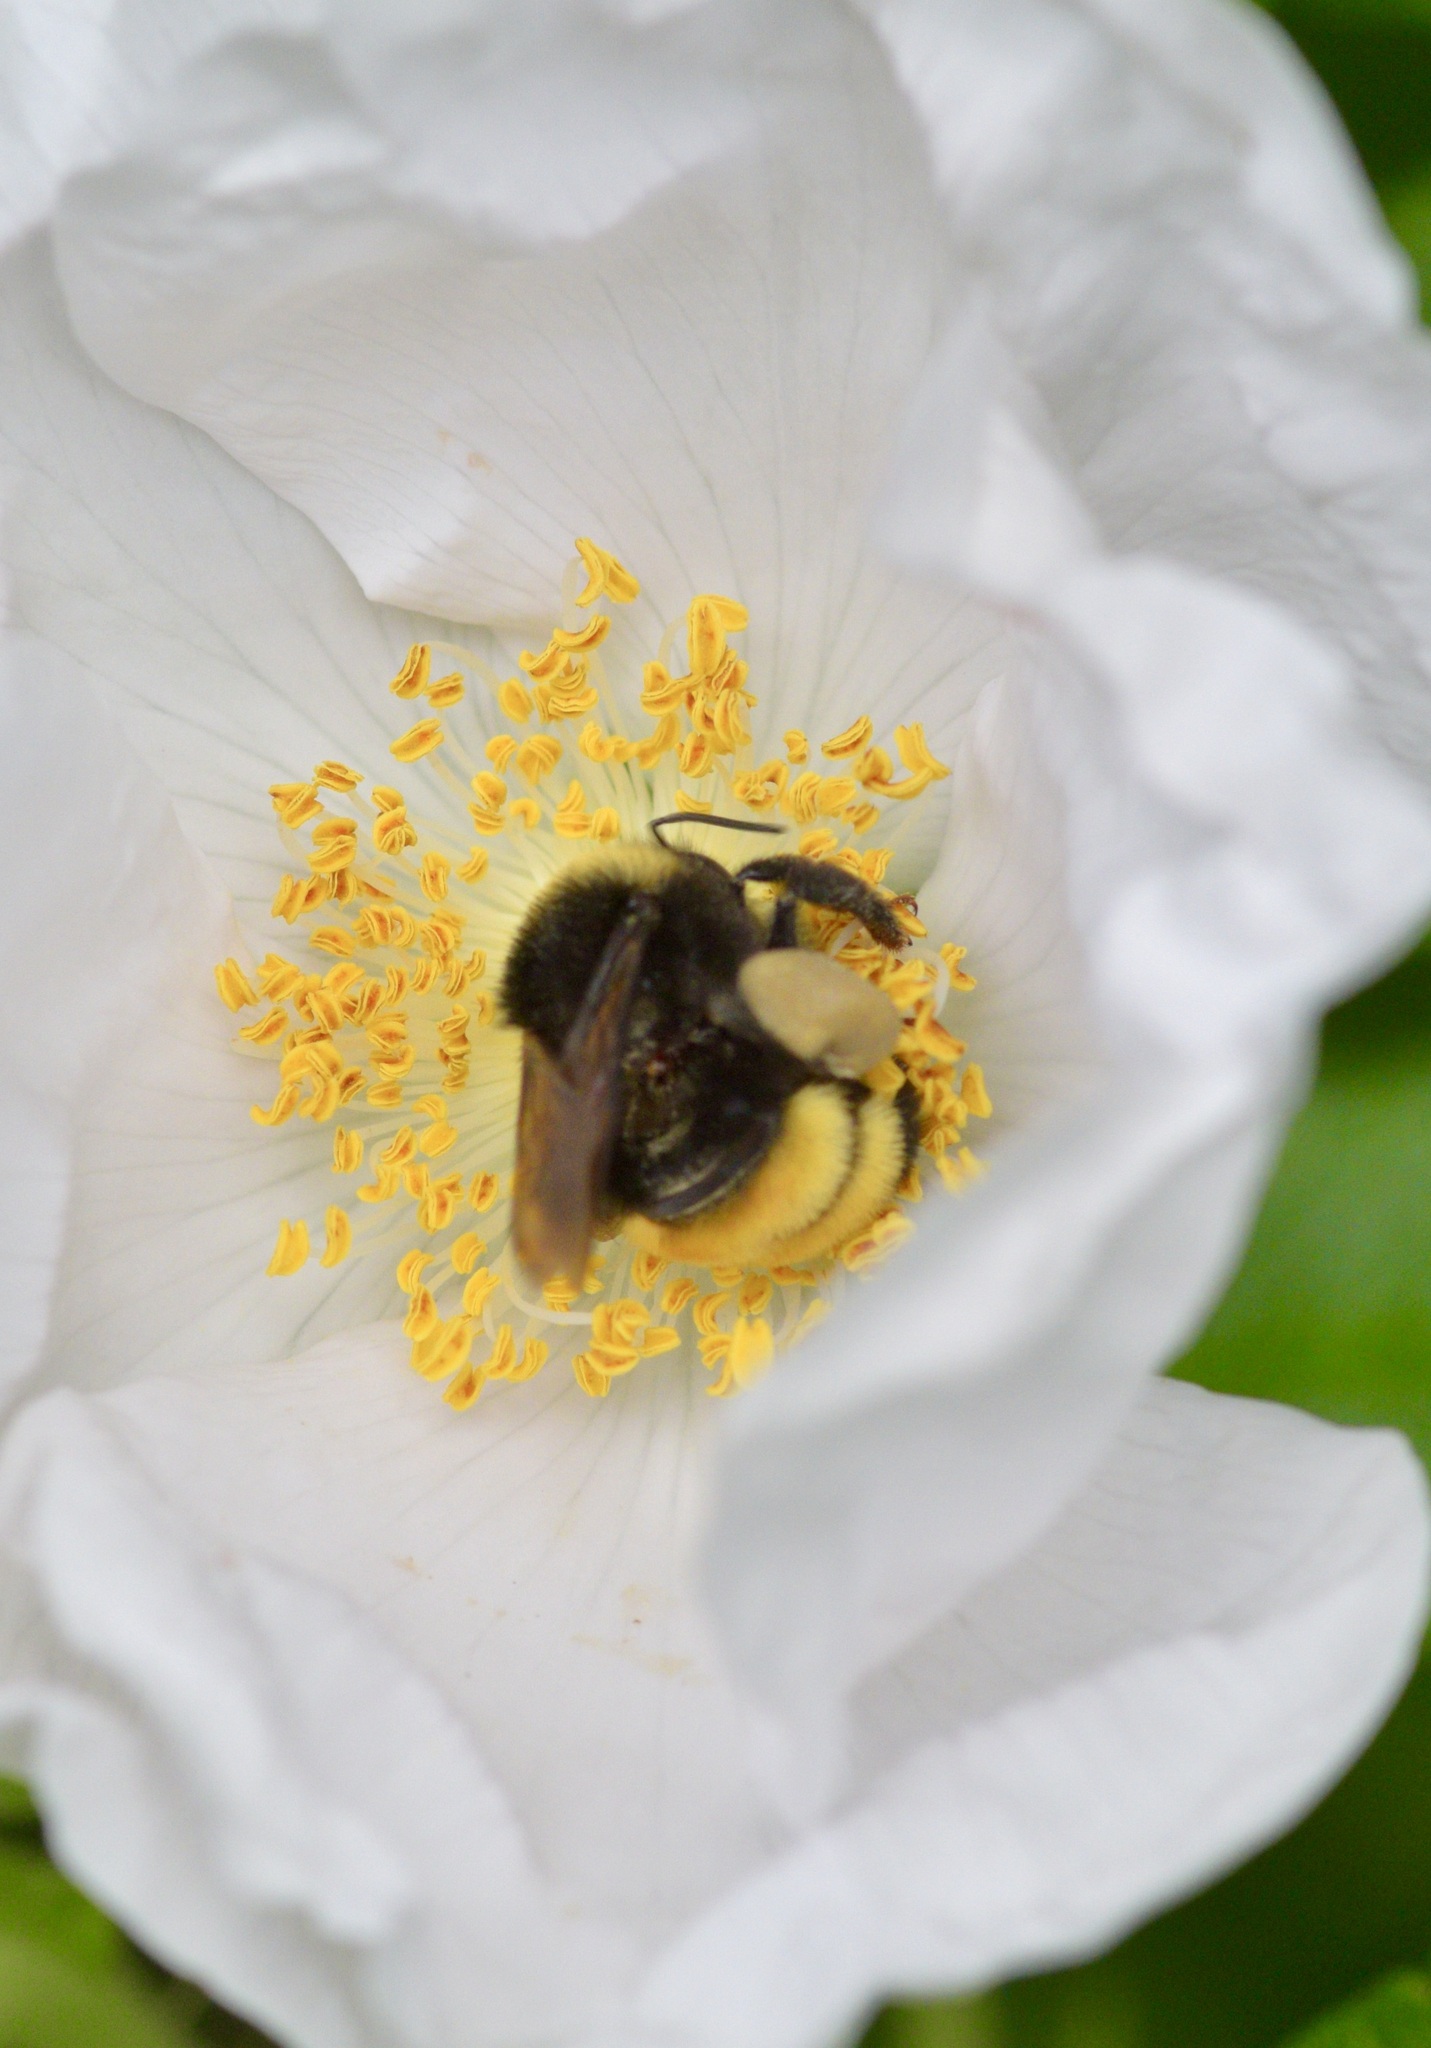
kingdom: Animalia
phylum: Arthropoda
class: Insecta
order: Hymenoptera
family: Apidae
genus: Bombus
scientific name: Bombus terricola
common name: Yellow-banded bumble bee
